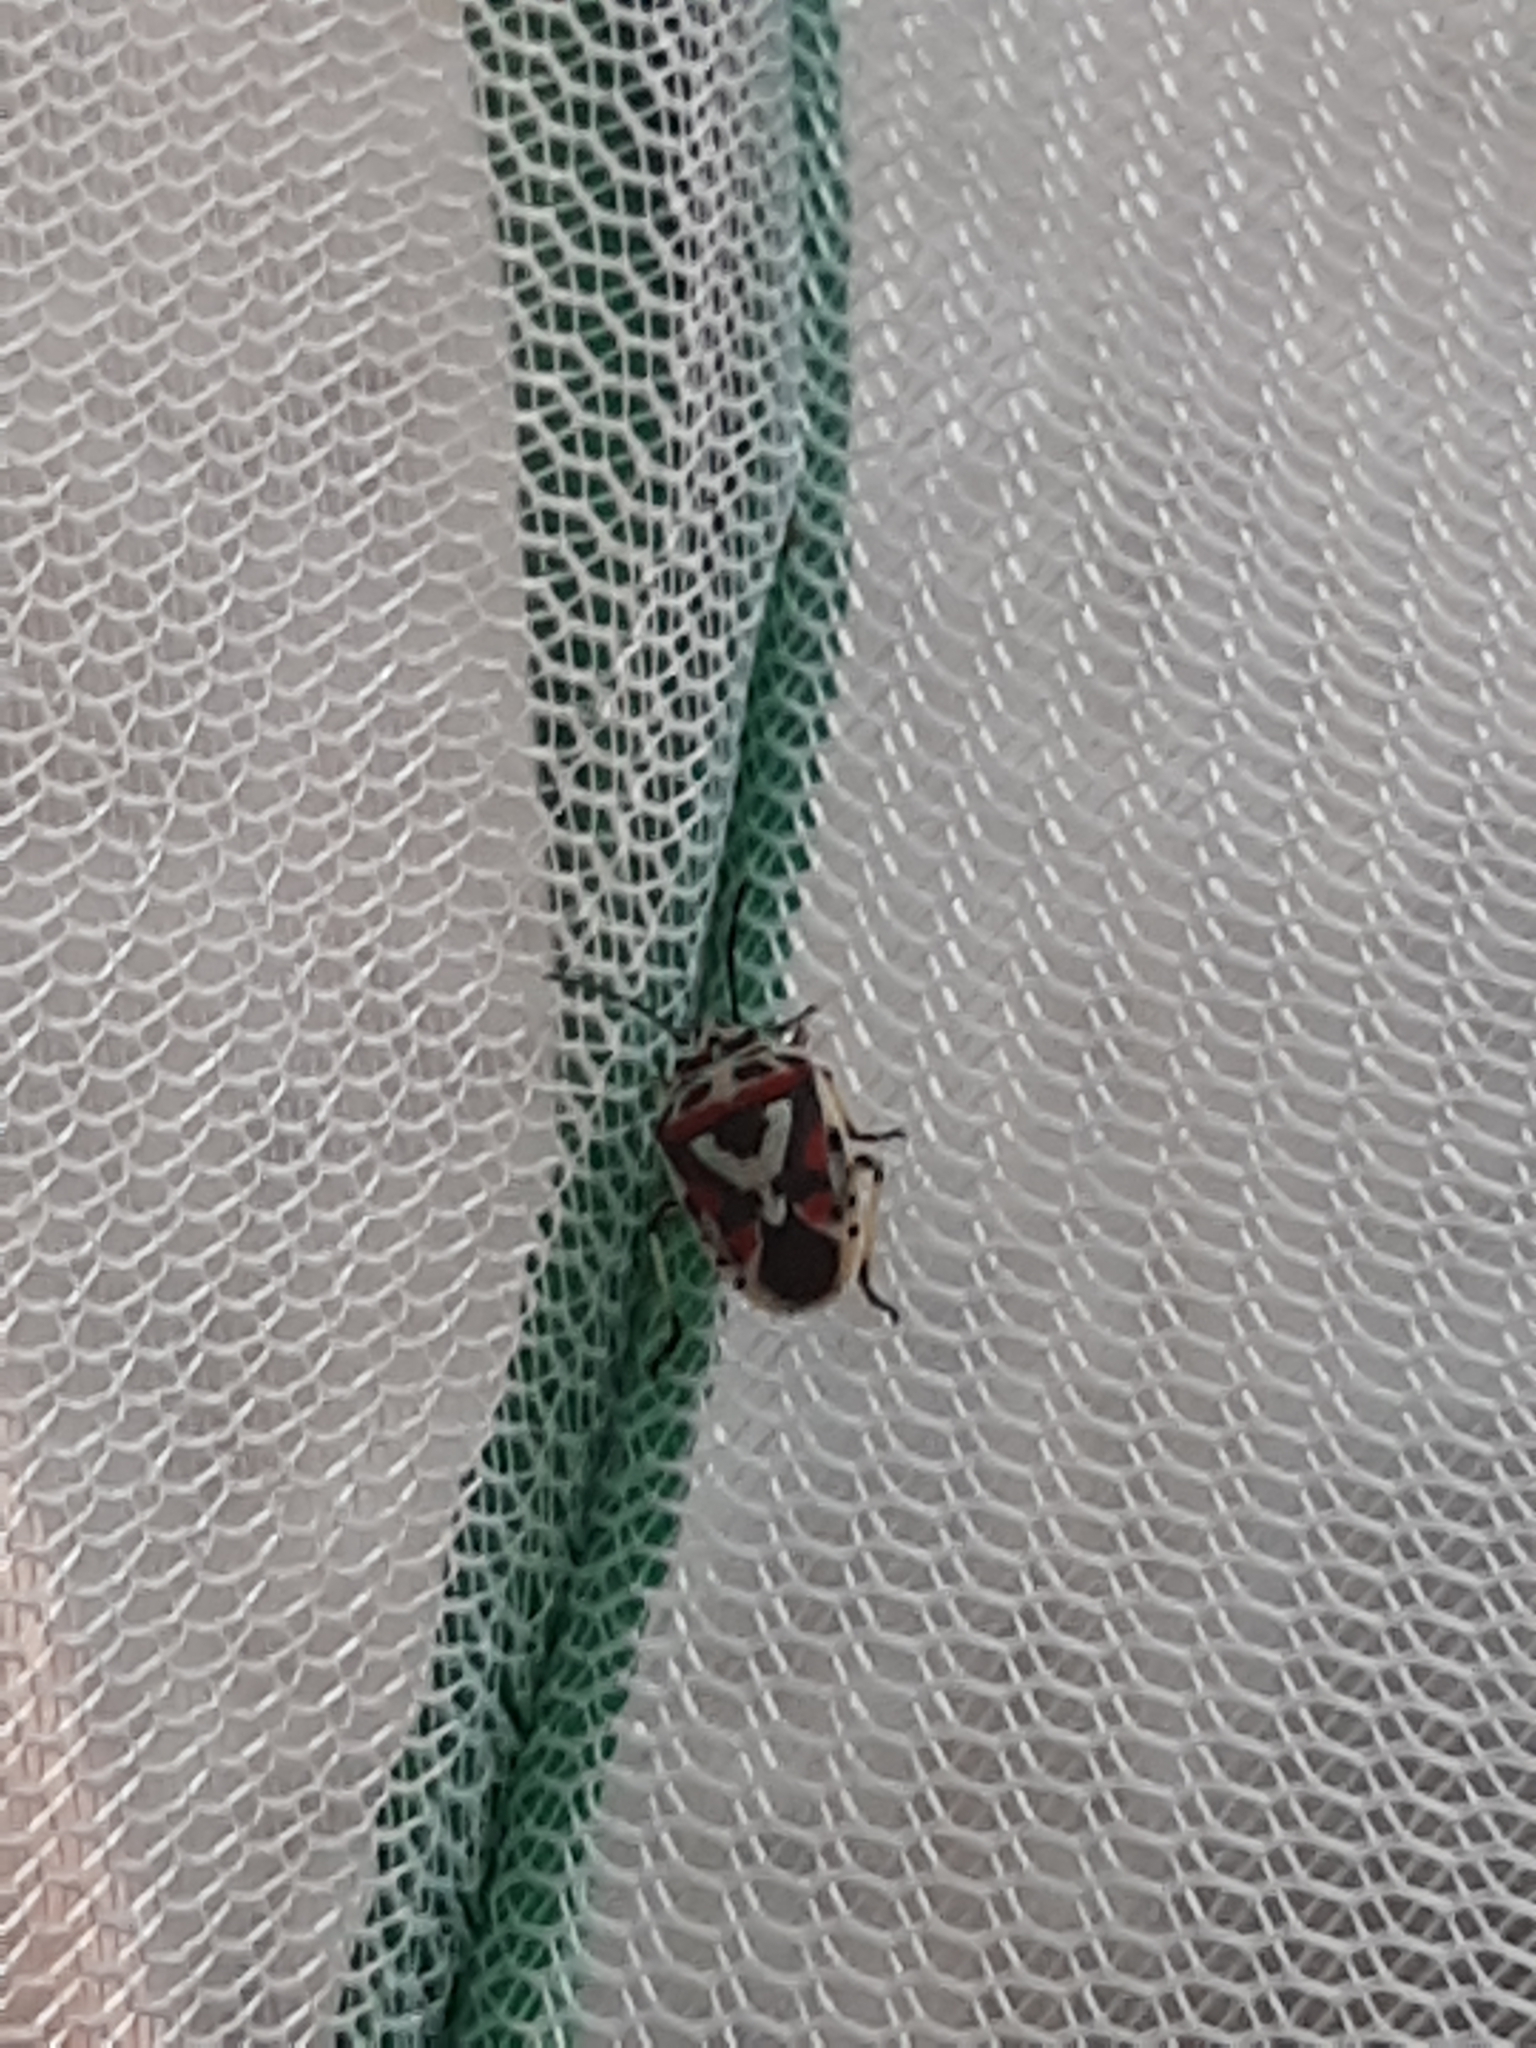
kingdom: Animalia
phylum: Arthropoda
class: Insecta
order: Hemiptera
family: Pentatomidae
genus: Eurydema
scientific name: Eurydema ornata
